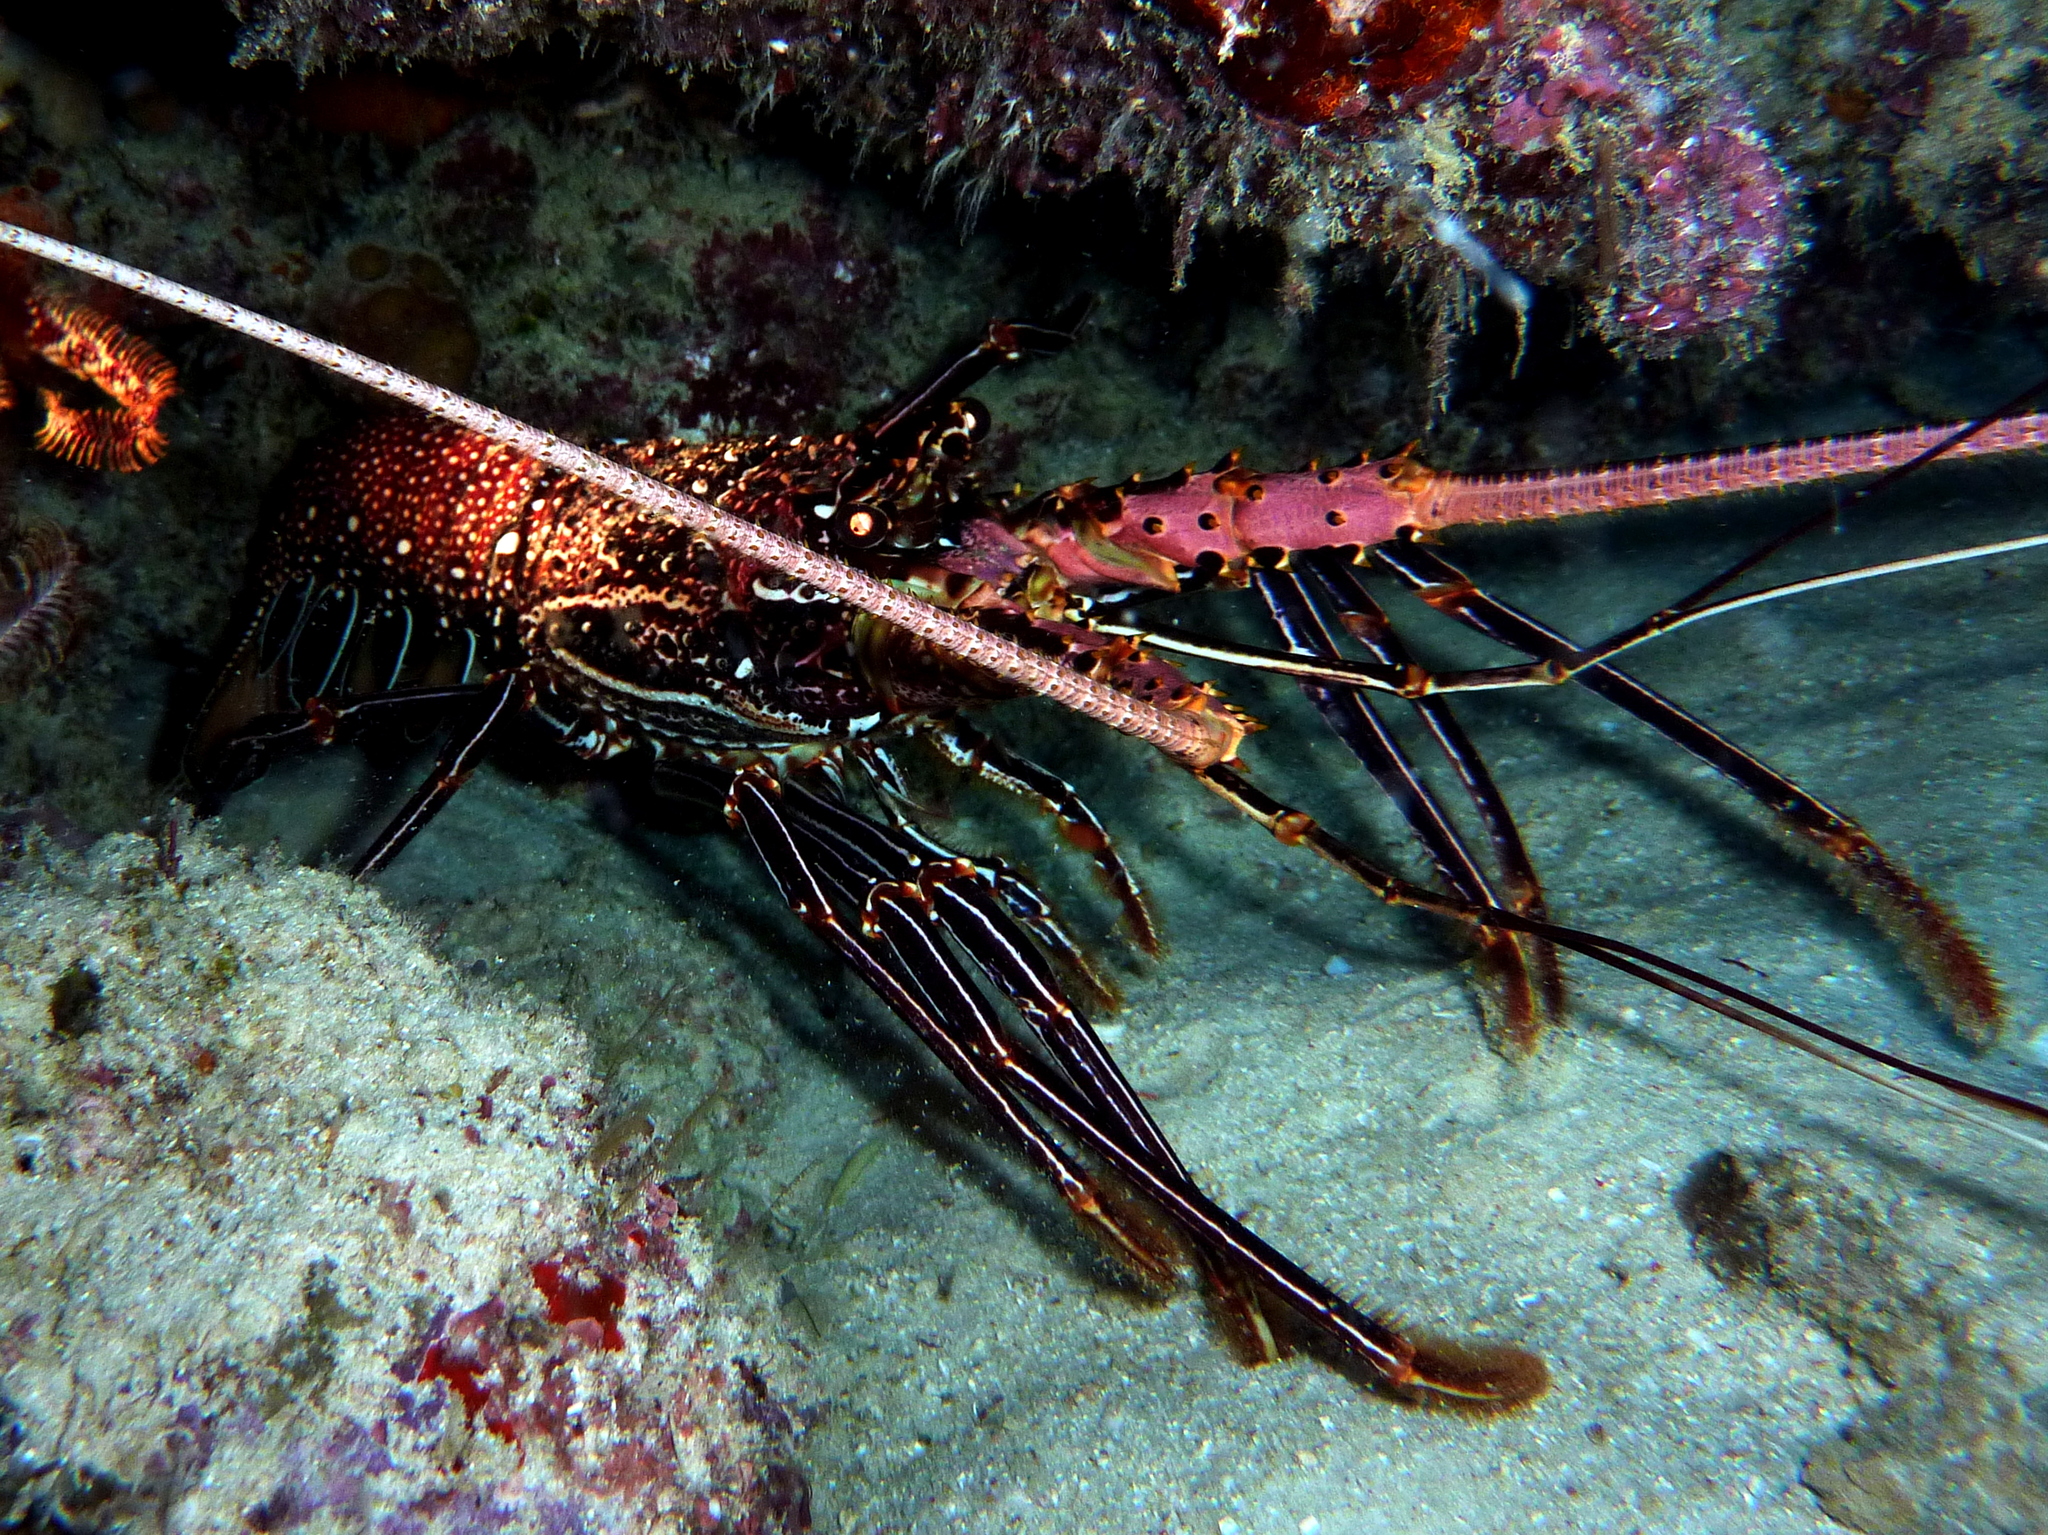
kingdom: Animalia
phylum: Arthropoda
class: Malacostraca
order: Decapoda
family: Palinuridae
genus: Panulirus
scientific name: Panulirus femoristriga
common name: White-whiskered coral crayfish
